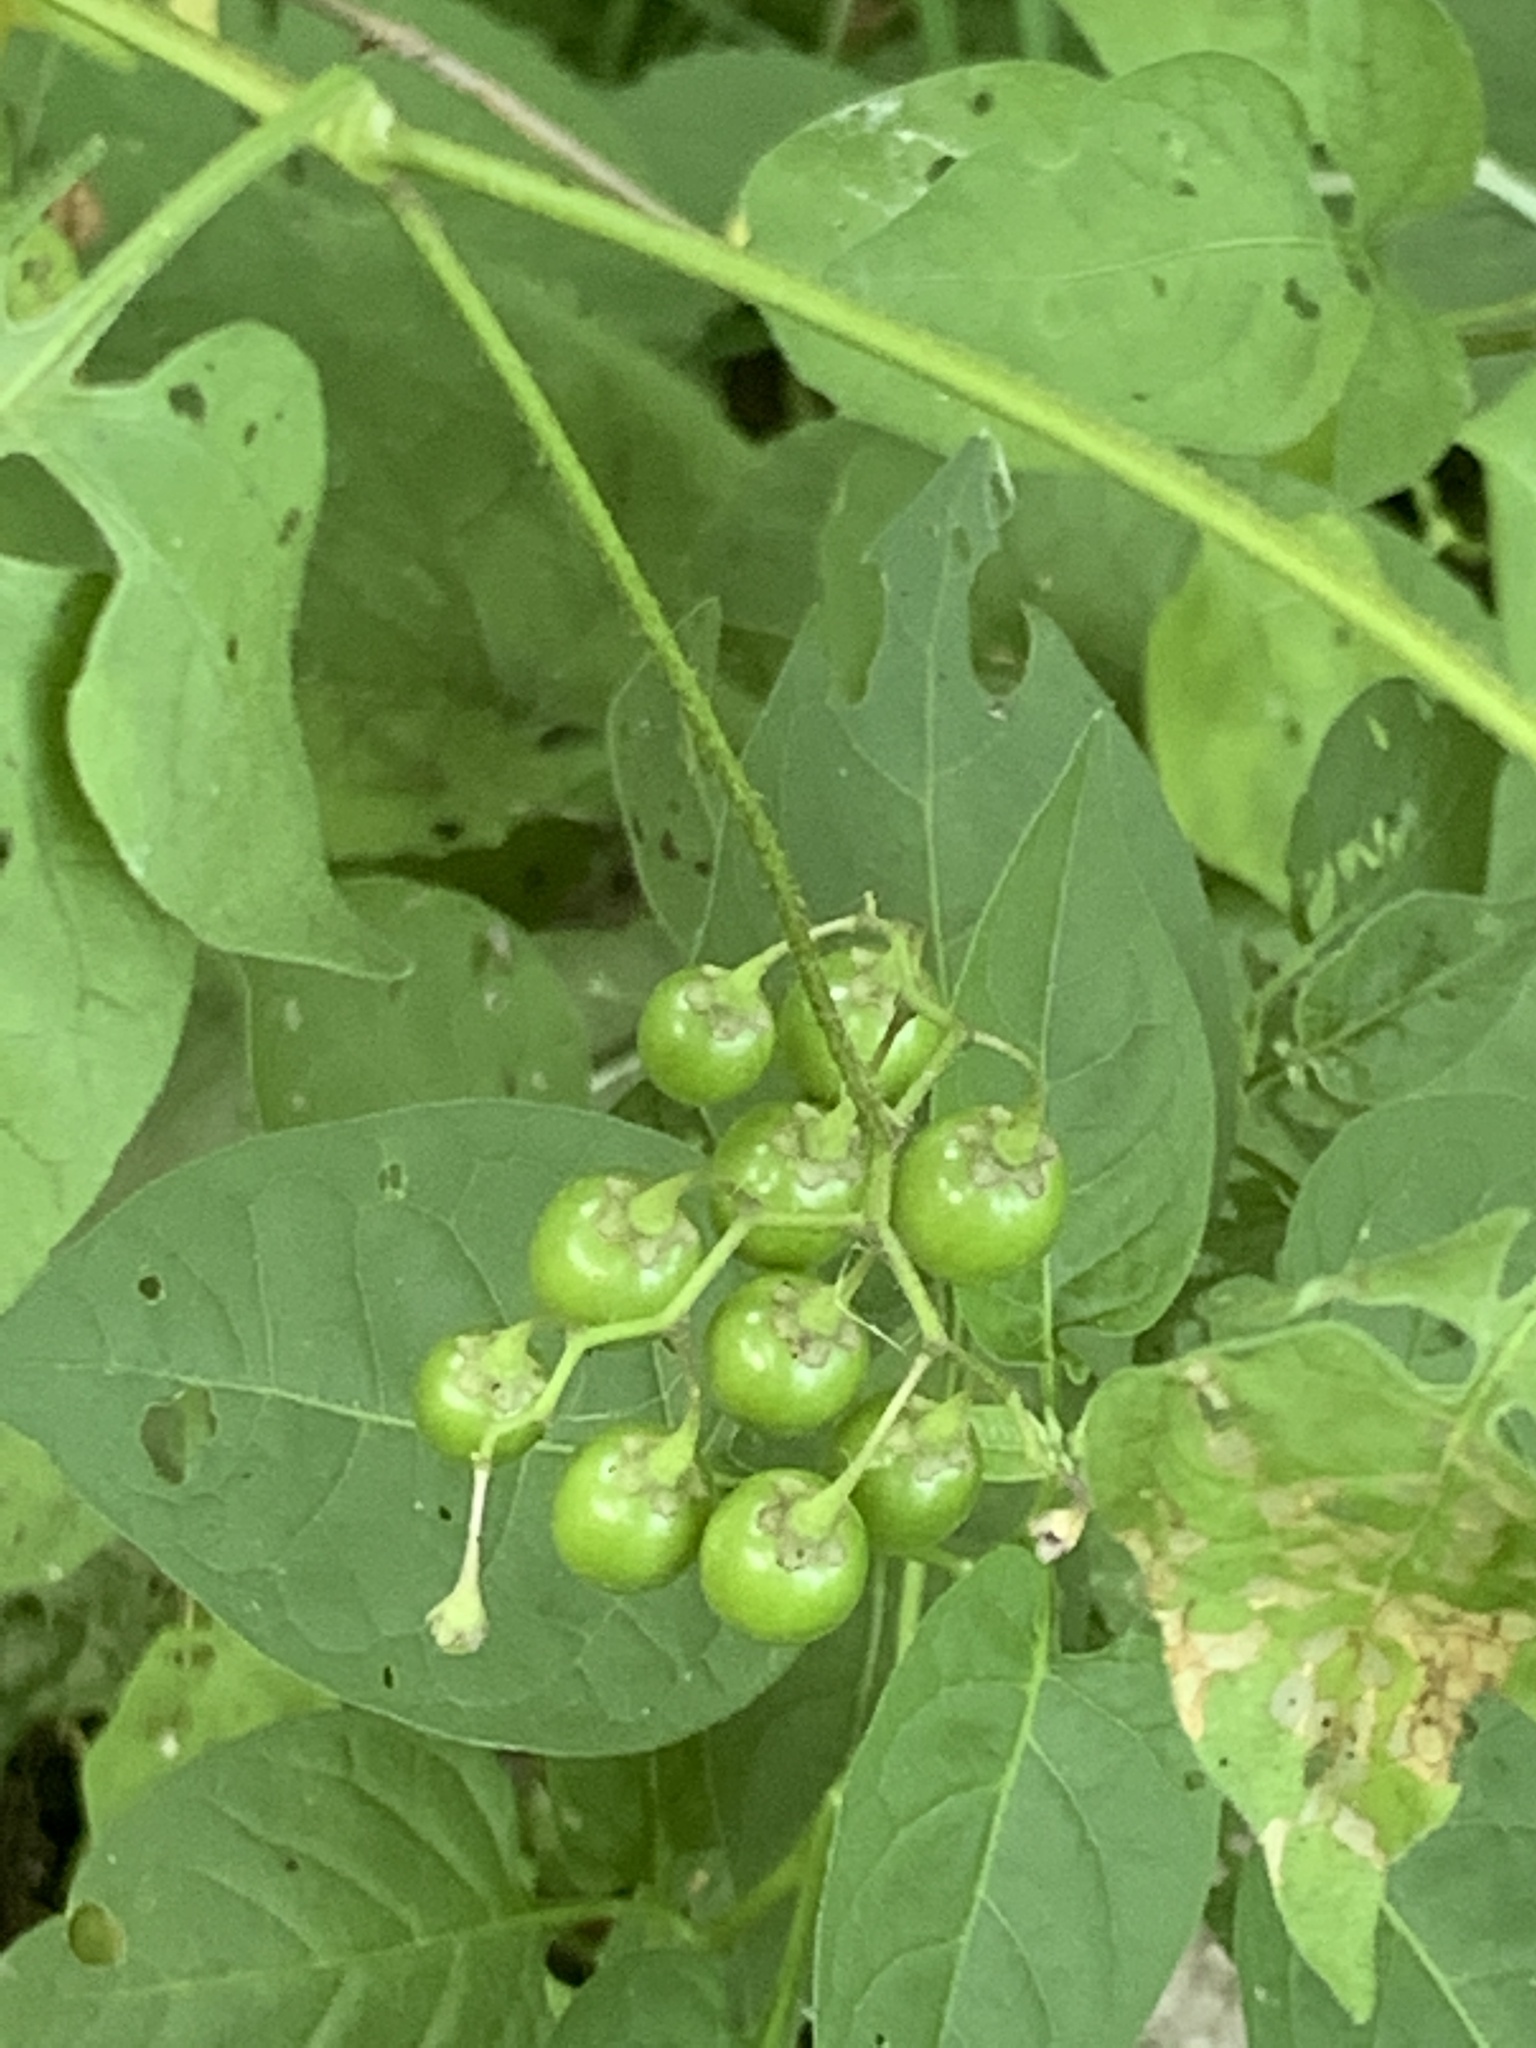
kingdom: Plantae
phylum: Tracheophyta
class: Magnoliopsida
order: Solanales
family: Solanaceae
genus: Solanum
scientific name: Solanum dulcamara
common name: Climbing nightshade
